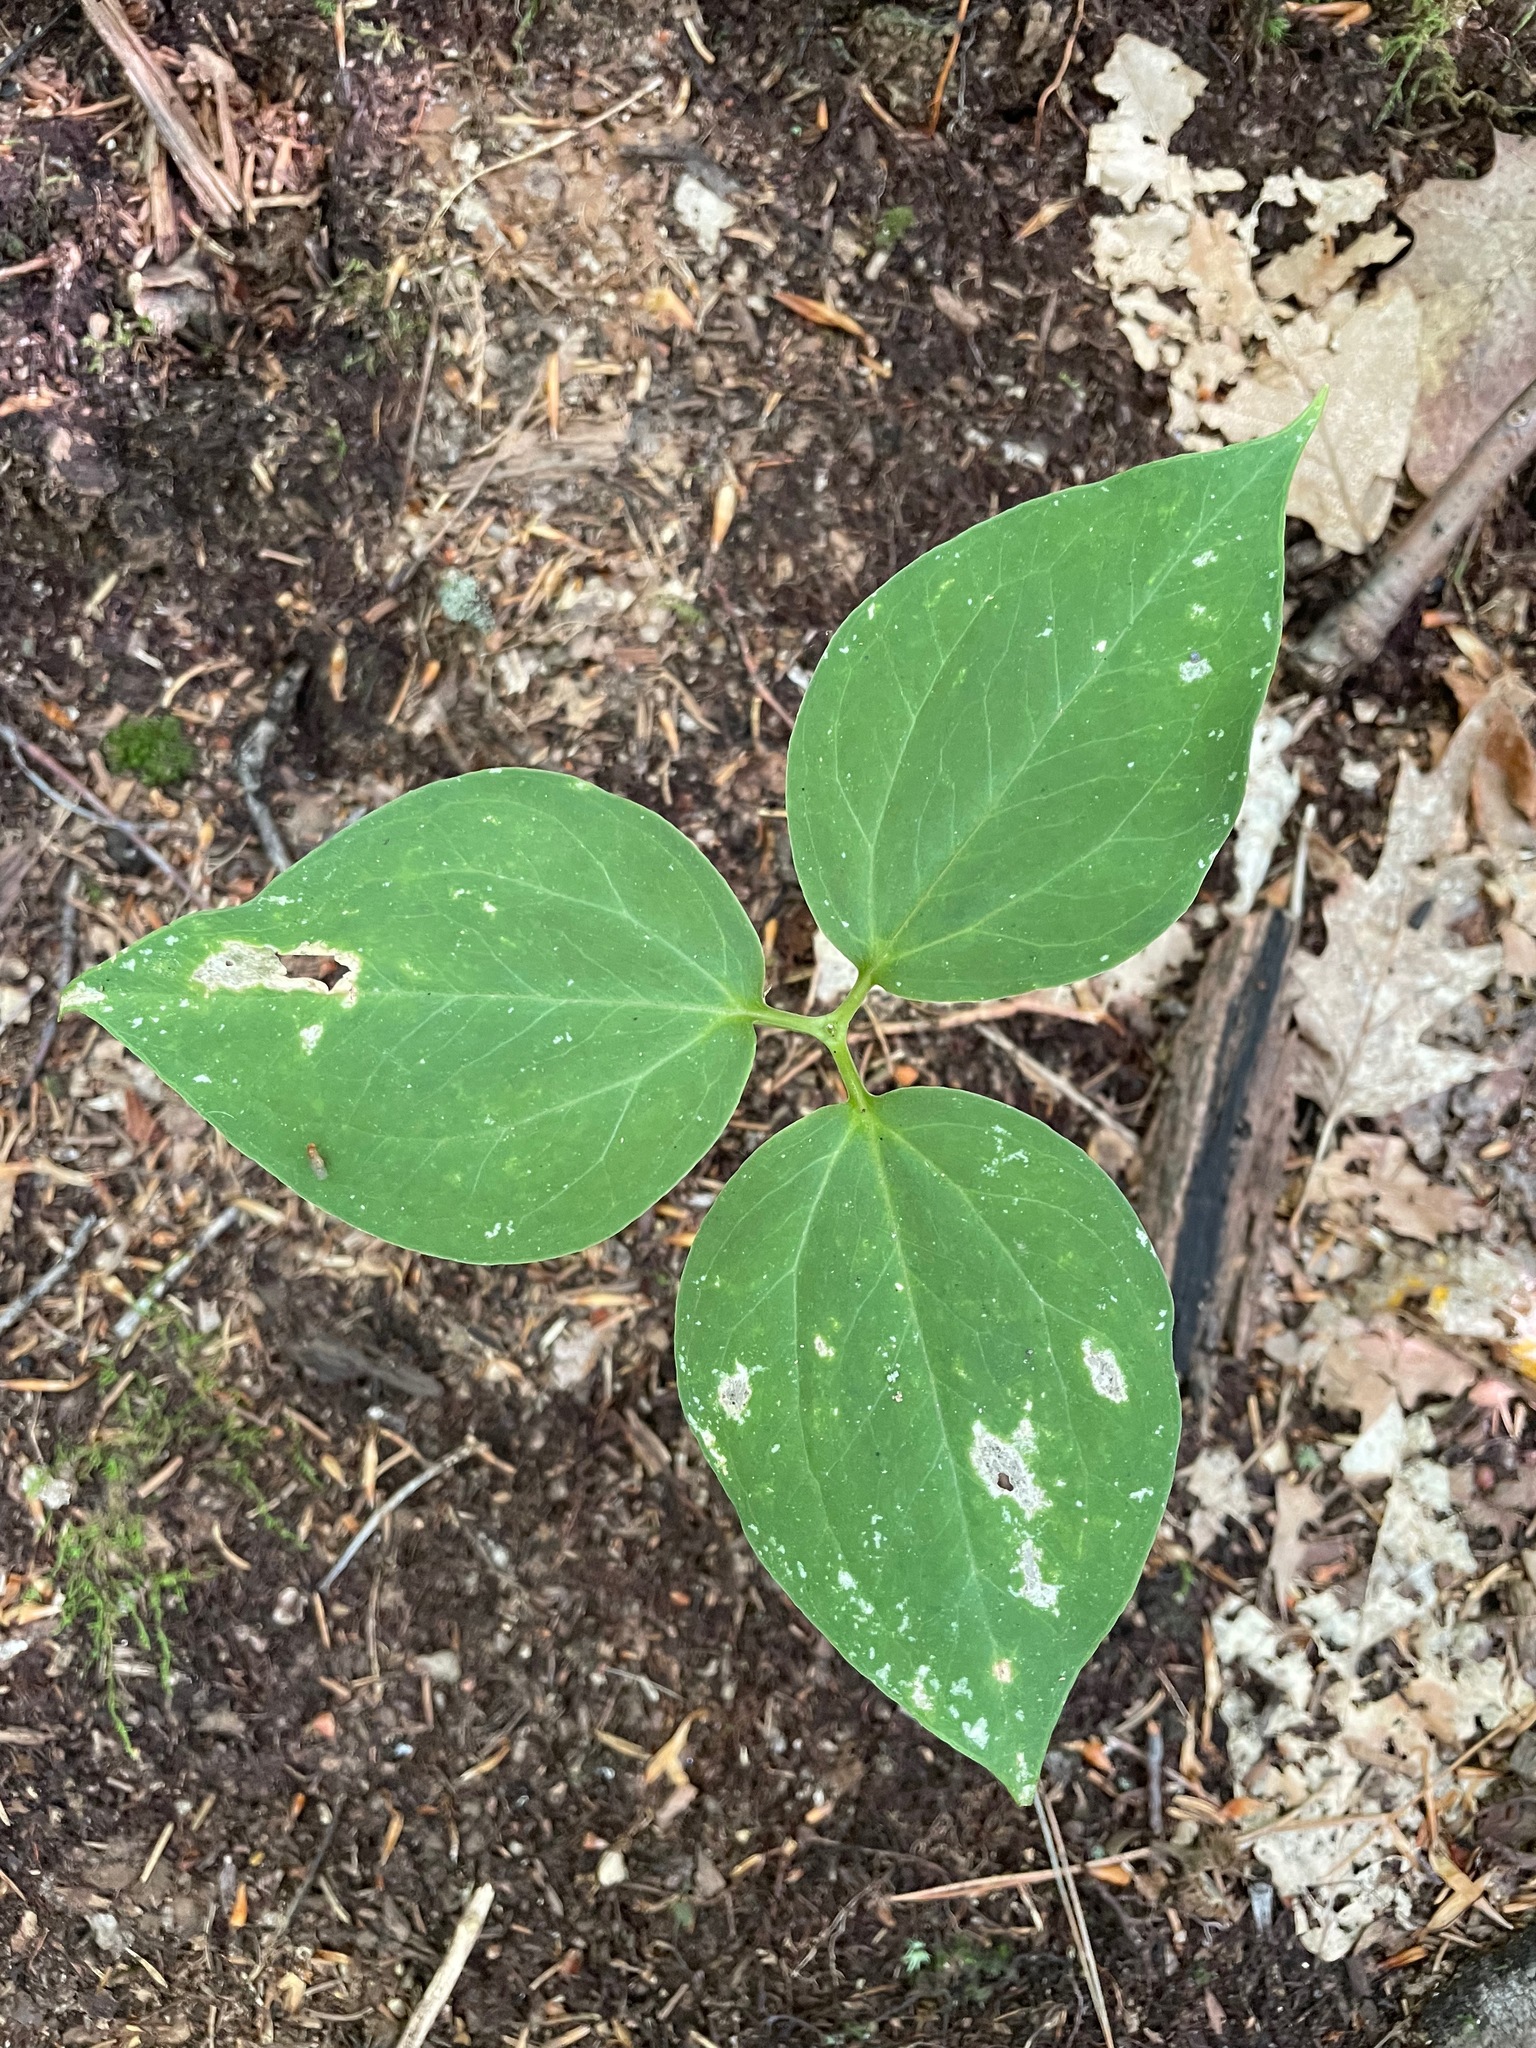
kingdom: Plantae
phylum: Tracheophyta
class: Liliopsida
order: Liliales
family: Melanthiaceae
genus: Trillium
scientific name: Trillium undulatum
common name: Paint trillium
